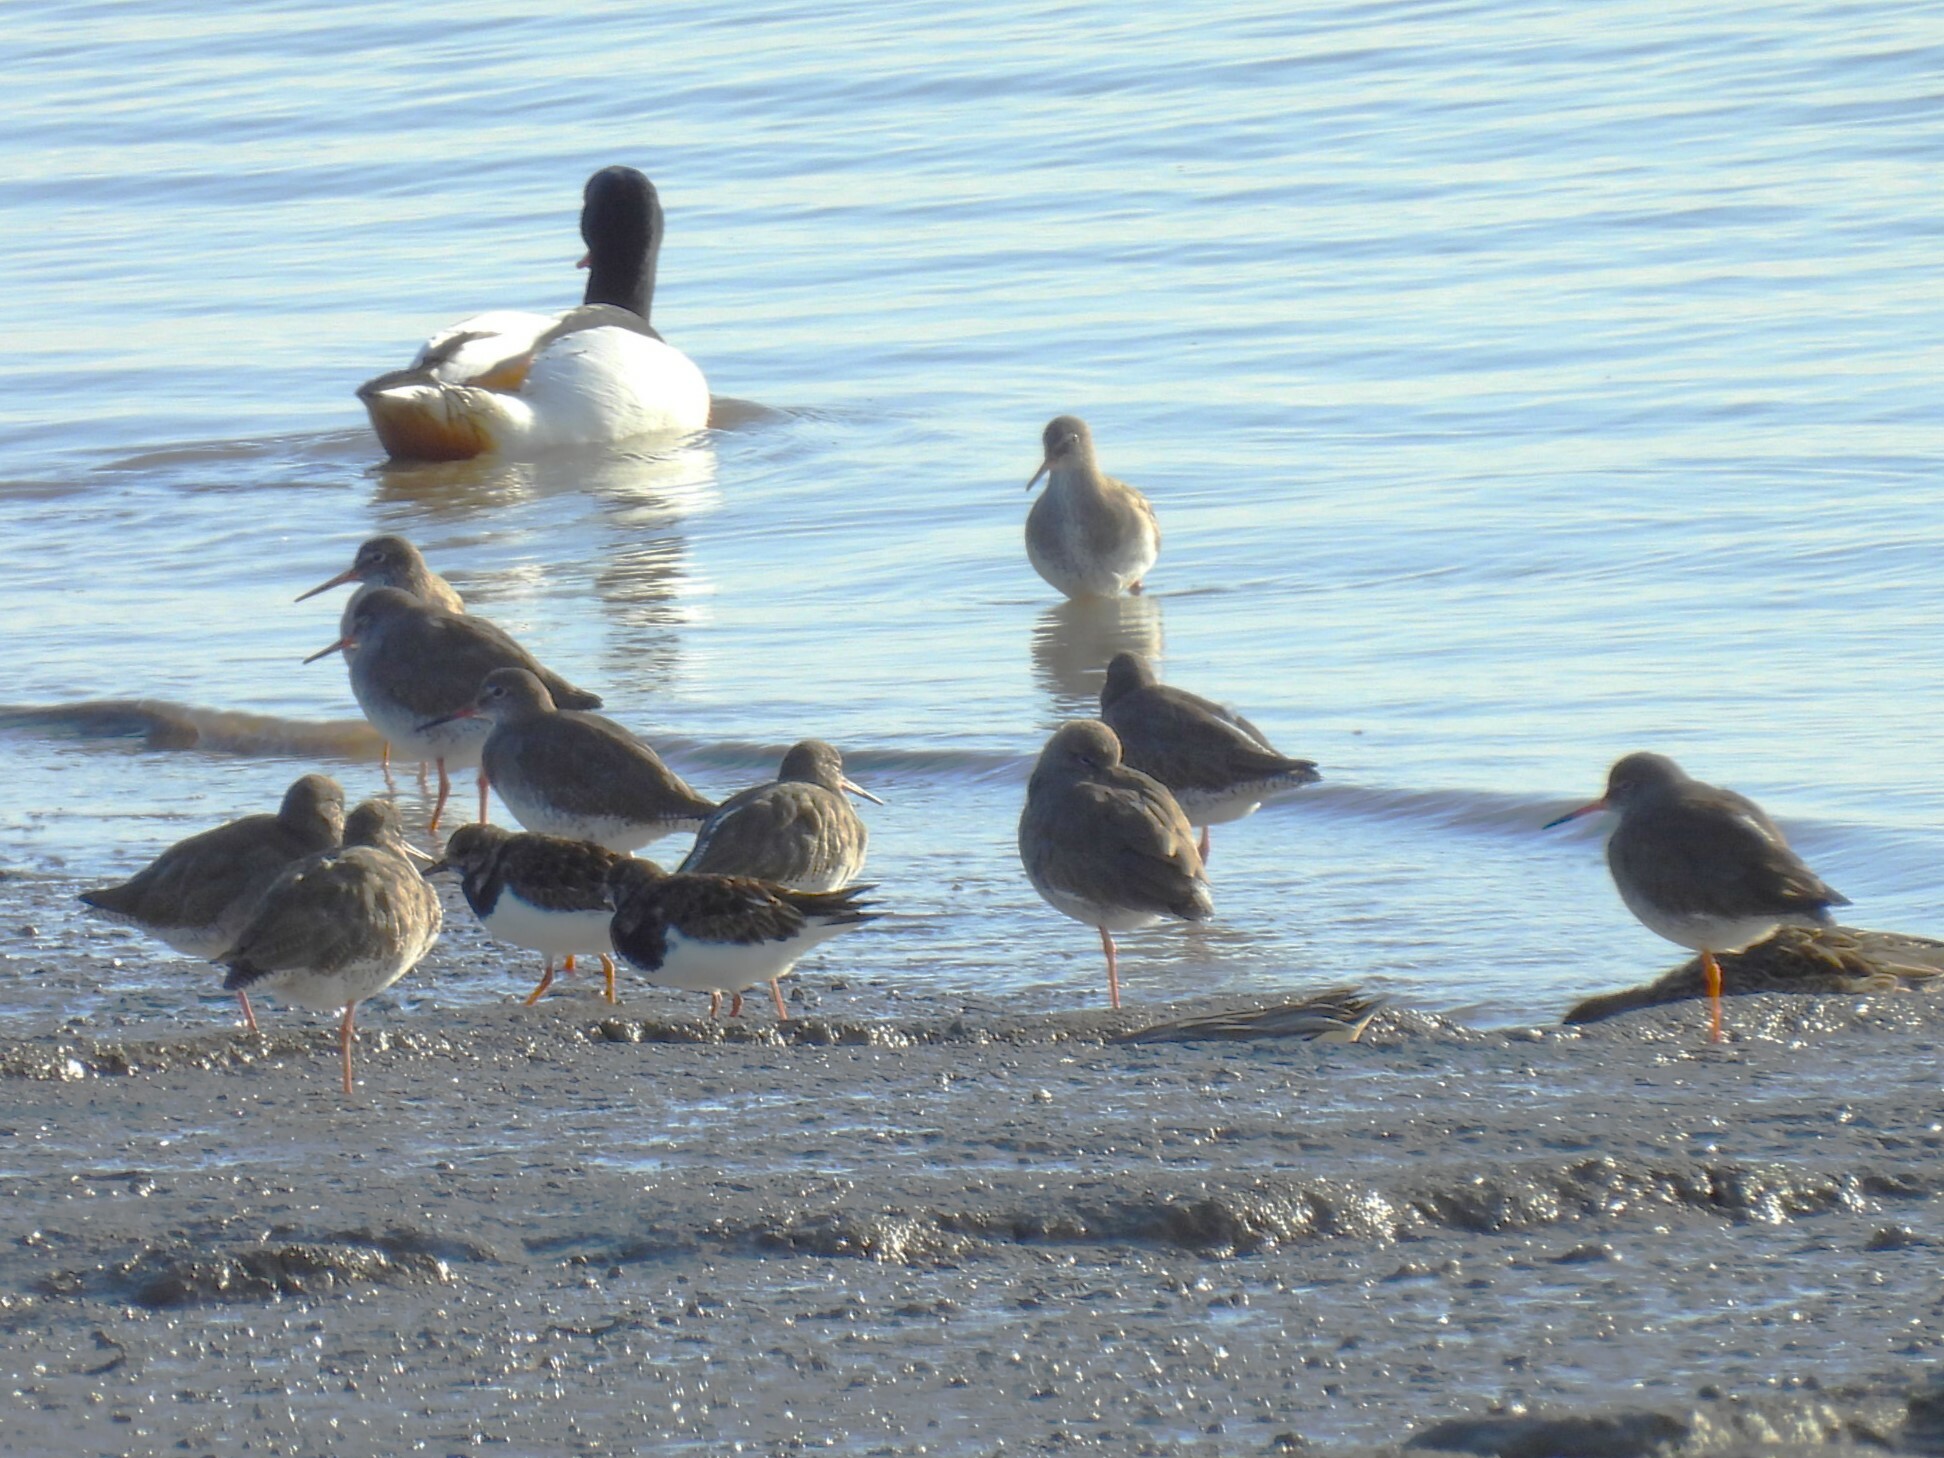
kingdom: Animalia
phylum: Chordata
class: Aves
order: Charadriiformes
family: Scolopacidae
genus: Tringa
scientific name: Tringa totanus
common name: Common redshank
